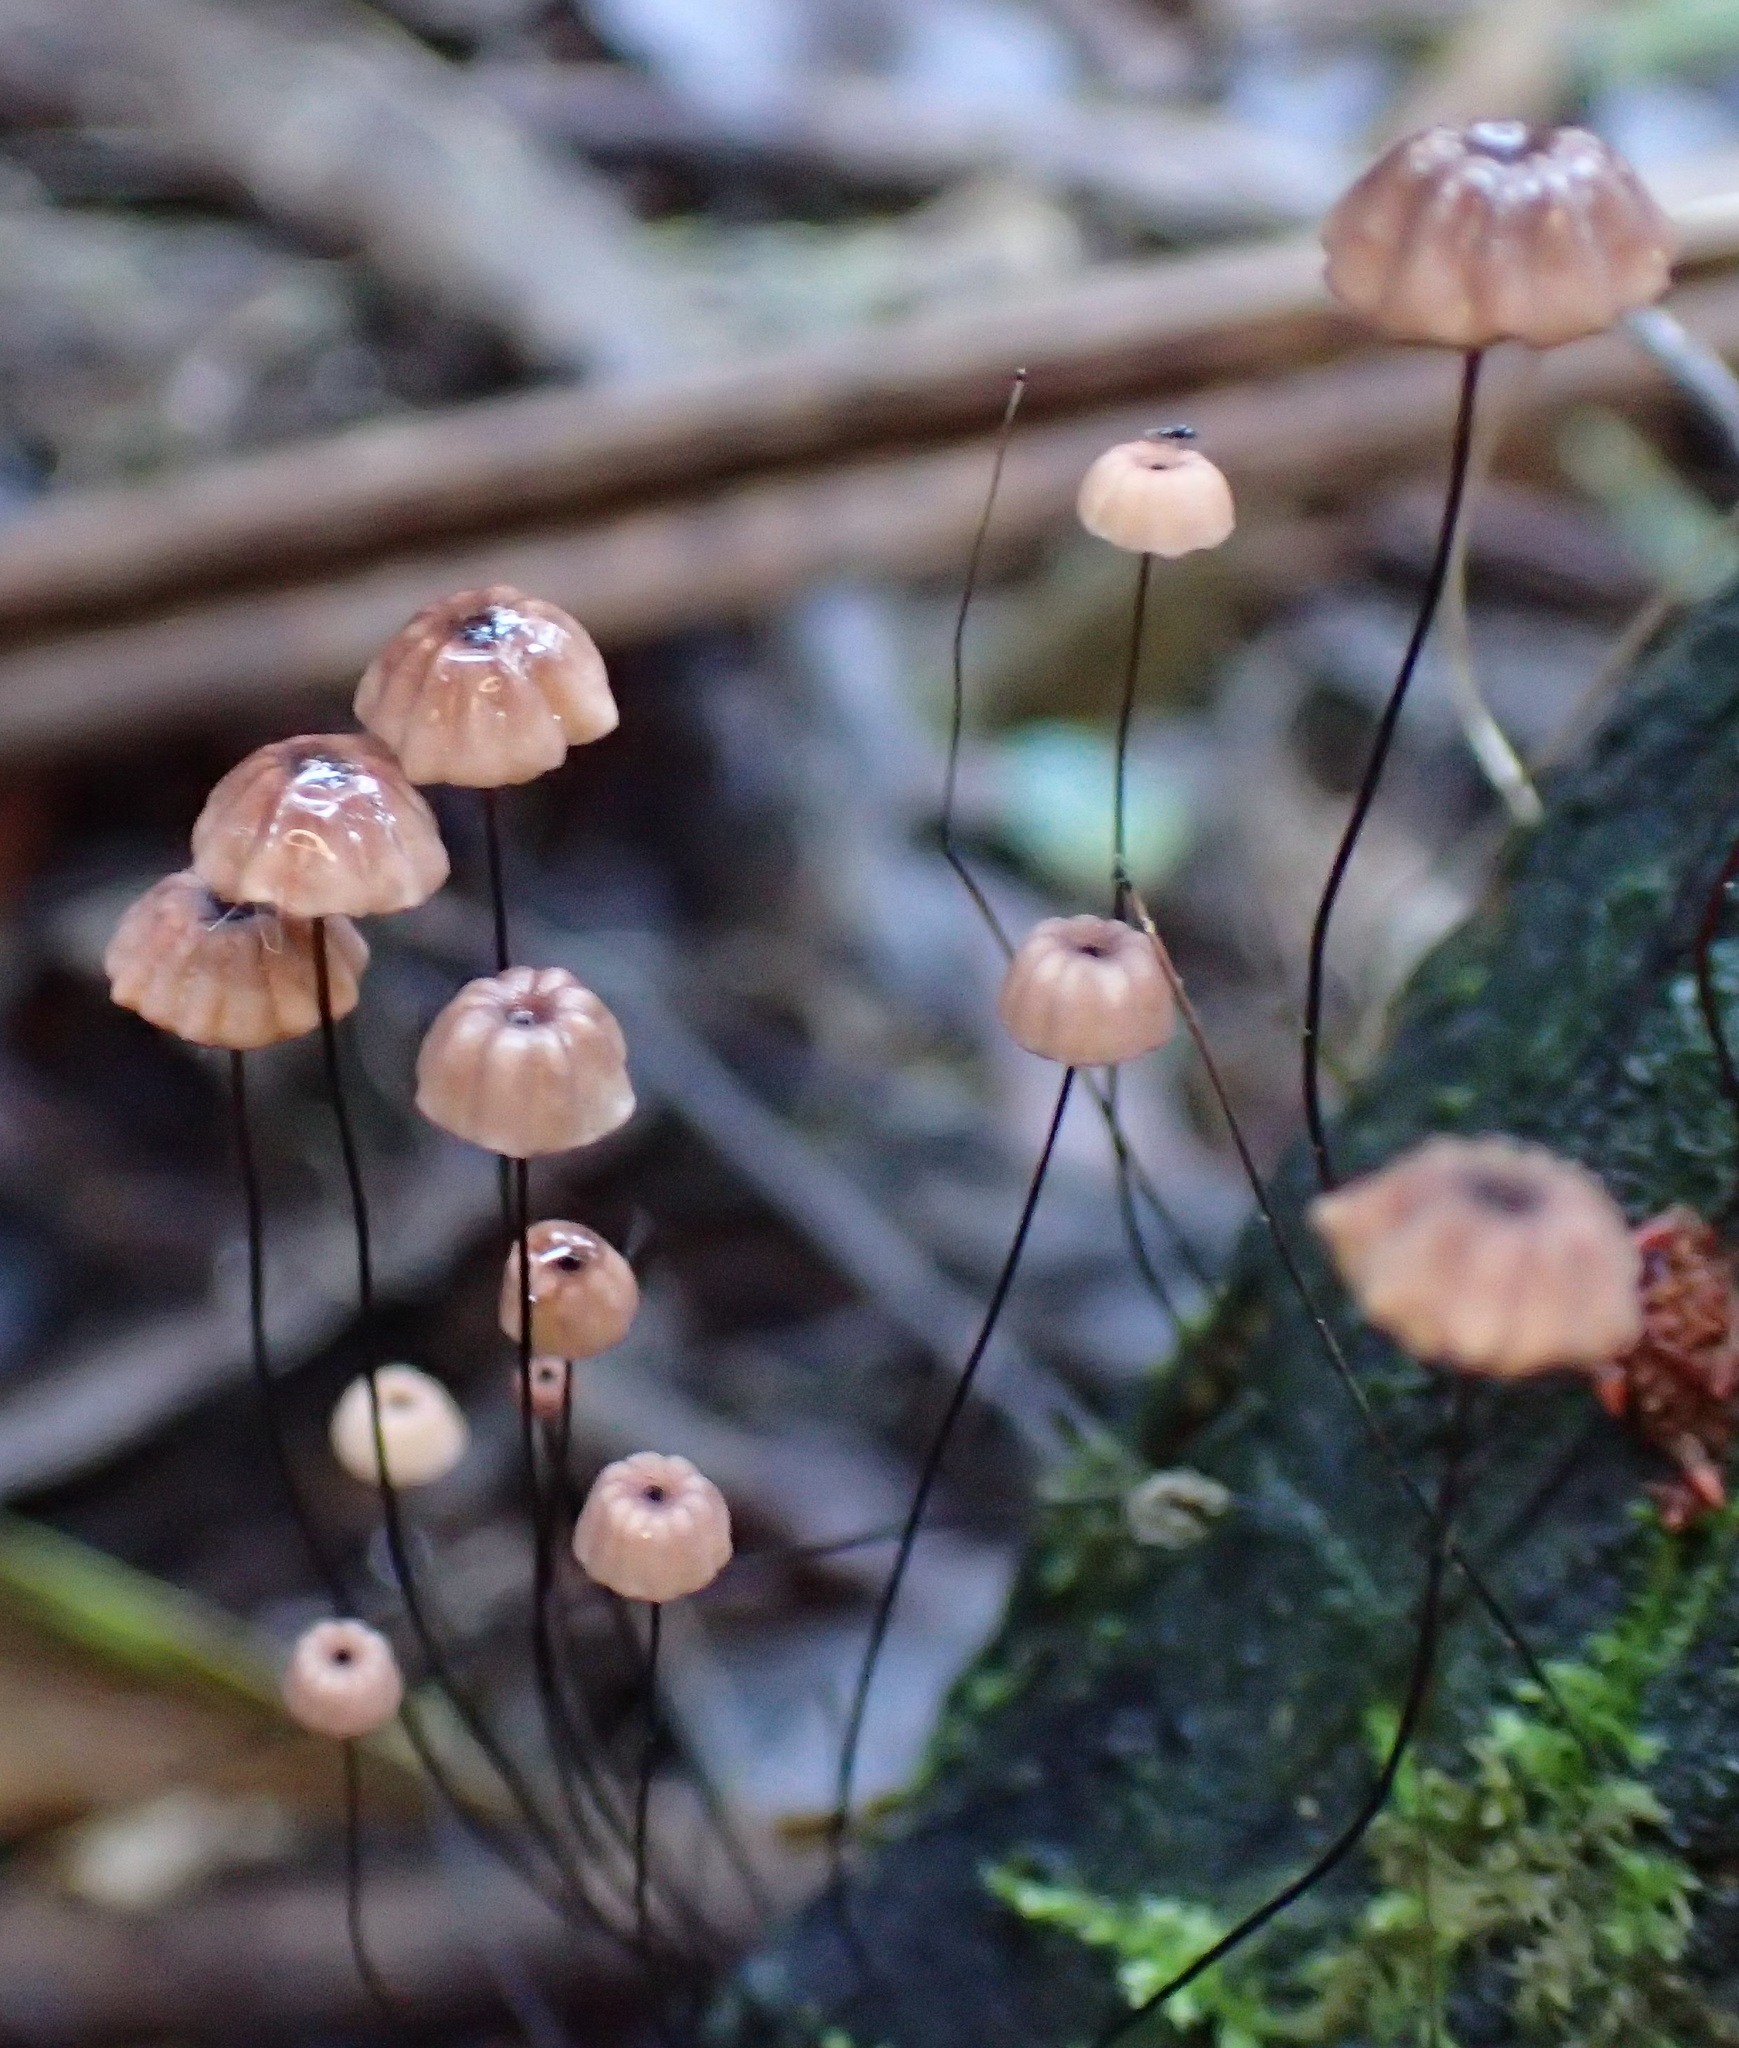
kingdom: Fungi
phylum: Basidiomycota
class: Agaricomycetes
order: Agaricales
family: Marasmiaceae
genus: Marasmius
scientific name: Marasmius crinis-equi
